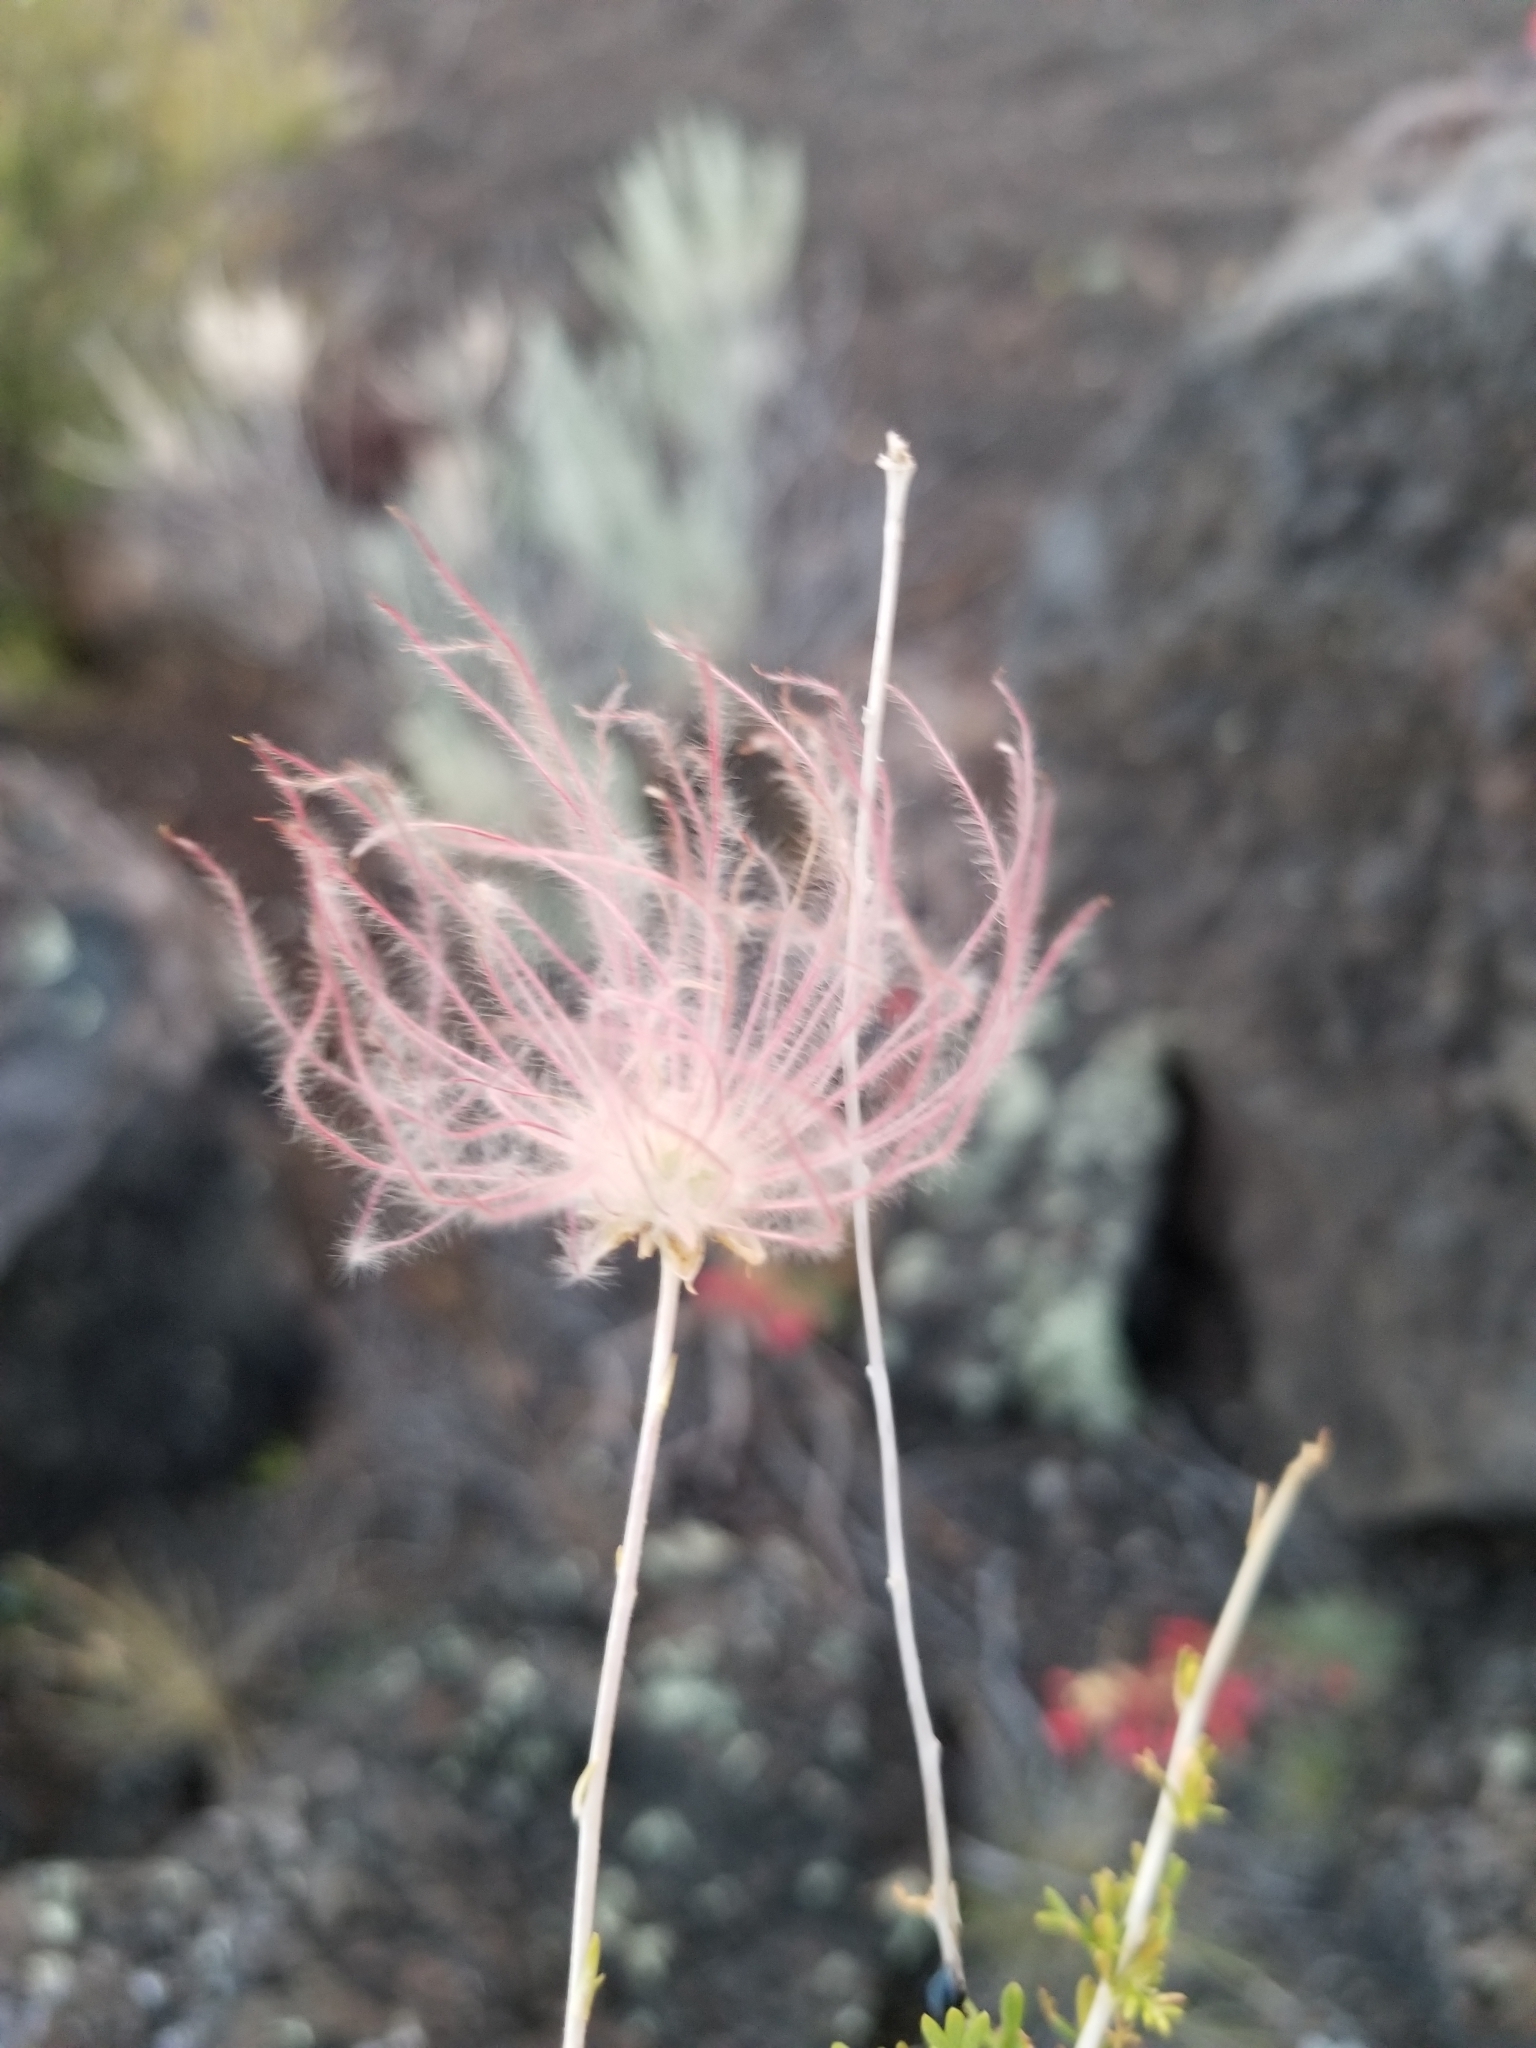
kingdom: Plantae
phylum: Tracheophyta
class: Magnoliopsida
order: Rosales
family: Rosaceae
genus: Fallugia
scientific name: Fallugia paradoxa
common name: Apache-plume
